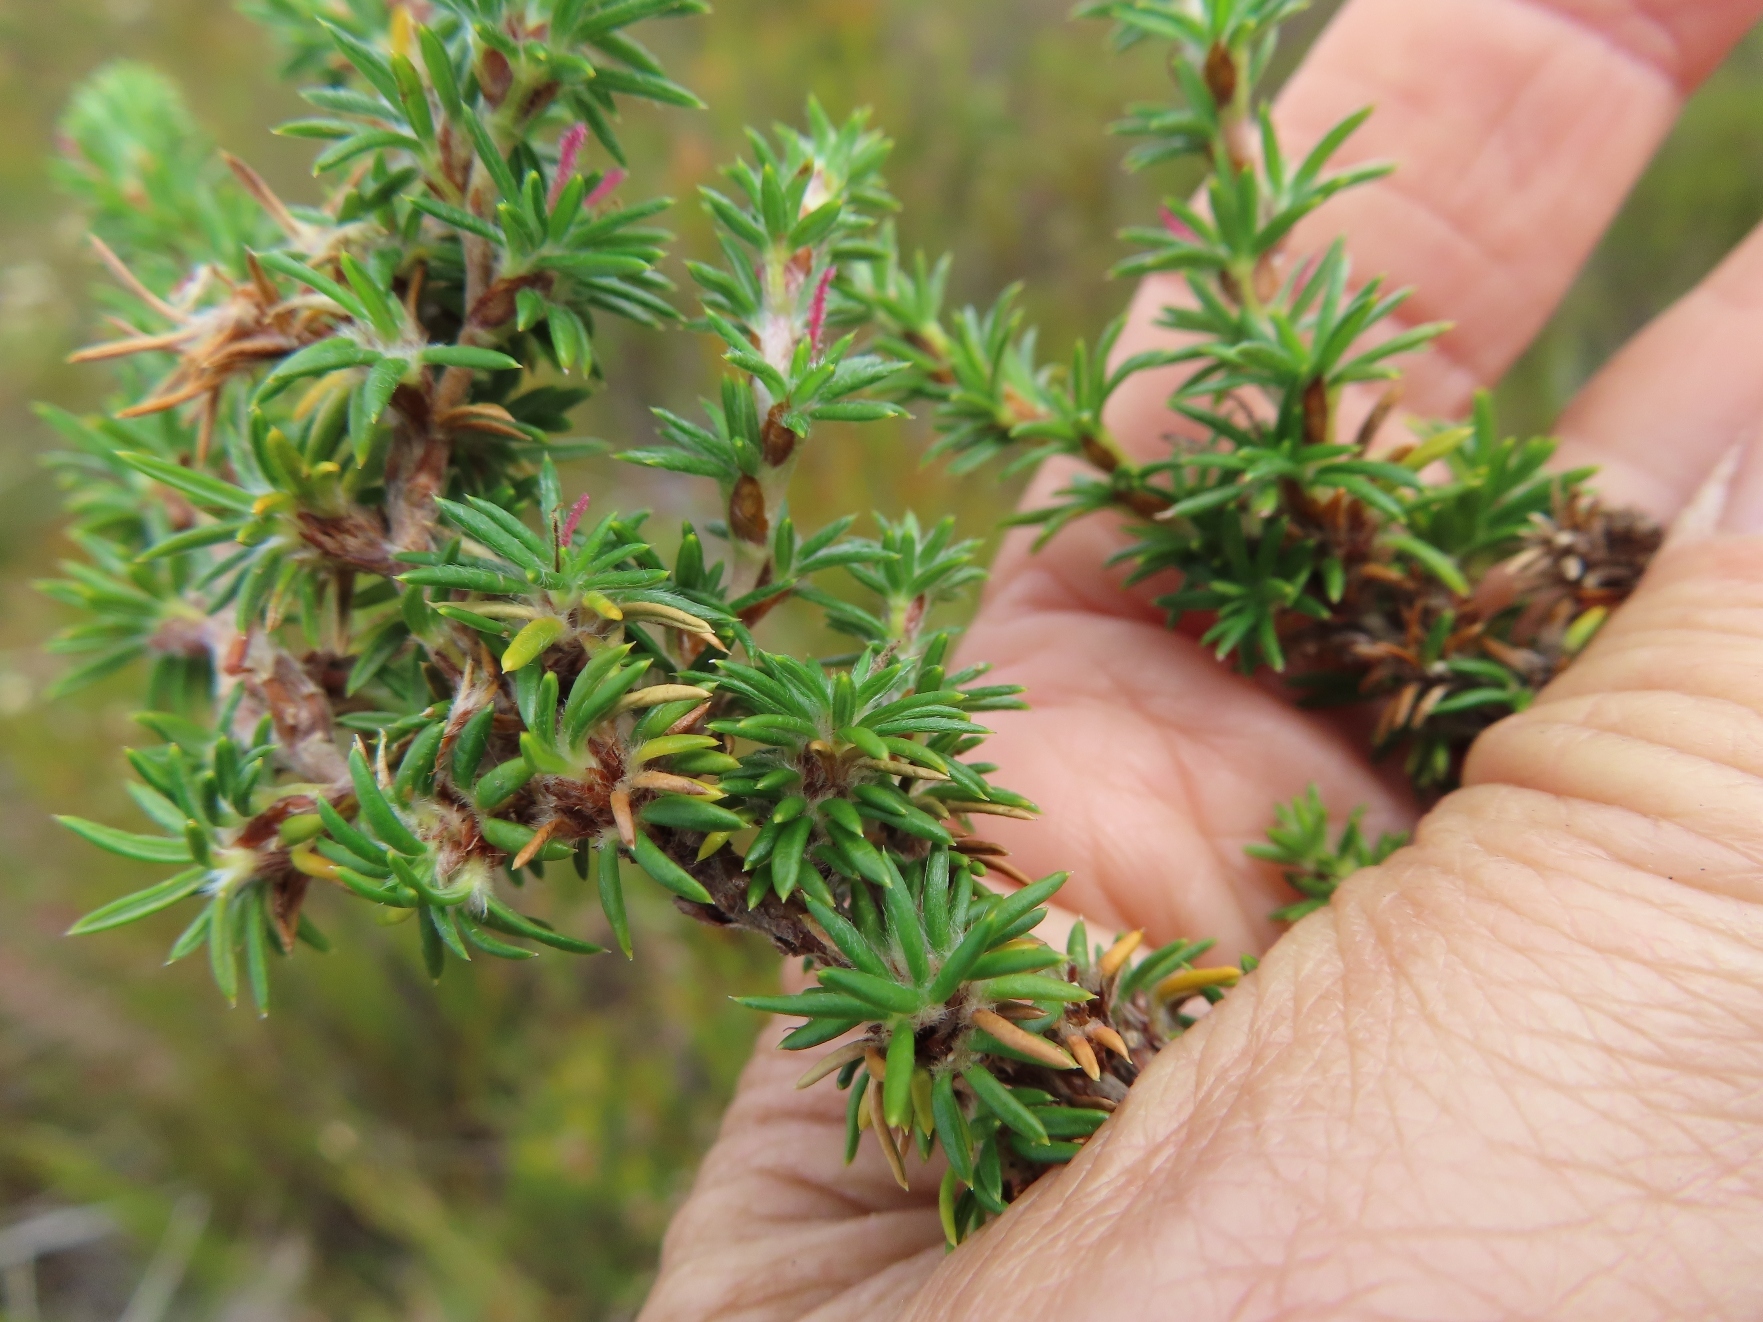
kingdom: Plantae
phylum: Tracheophyta
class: Magnoliopsida
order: Rosales
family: Rosaceae
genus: Cliffortia
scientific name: Cliffortia stricta
